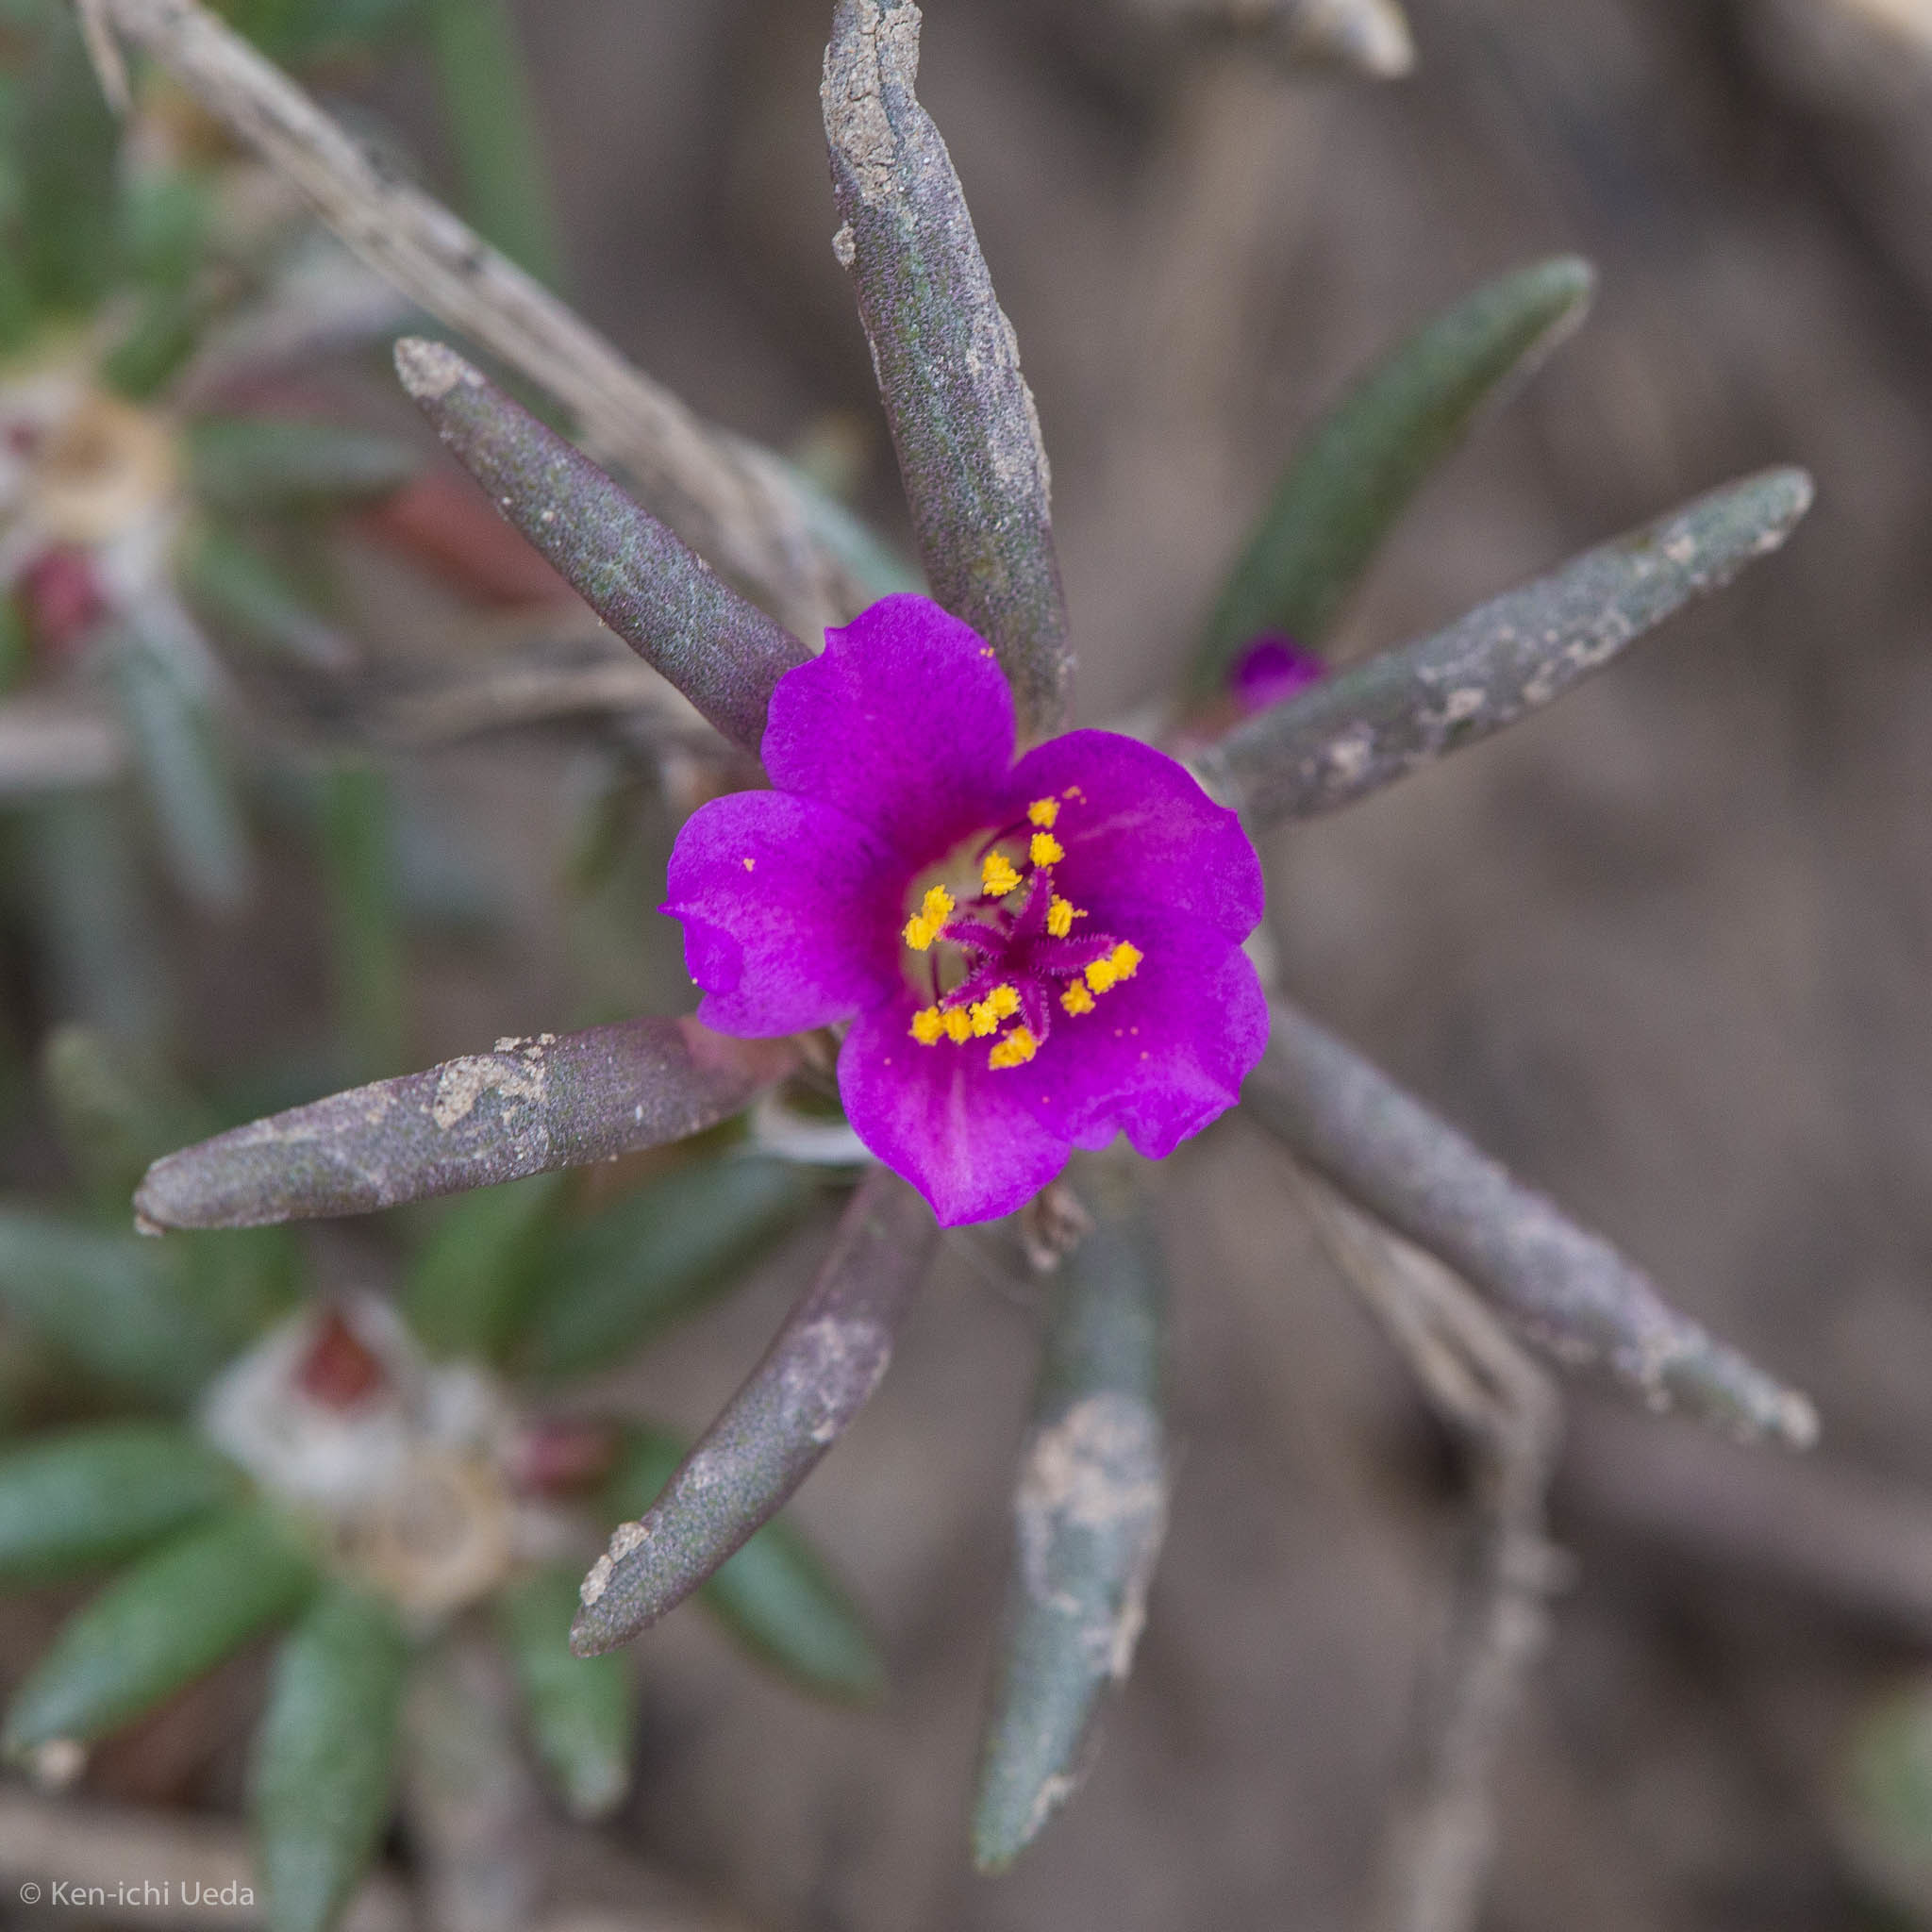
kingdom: Plantae
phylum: Tracheophyta
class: Magnoliopsida
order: Caryophyllales
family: Portulacaceae
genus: Portulaca
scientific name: Portulaca pilosa
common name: Kiss me quick
